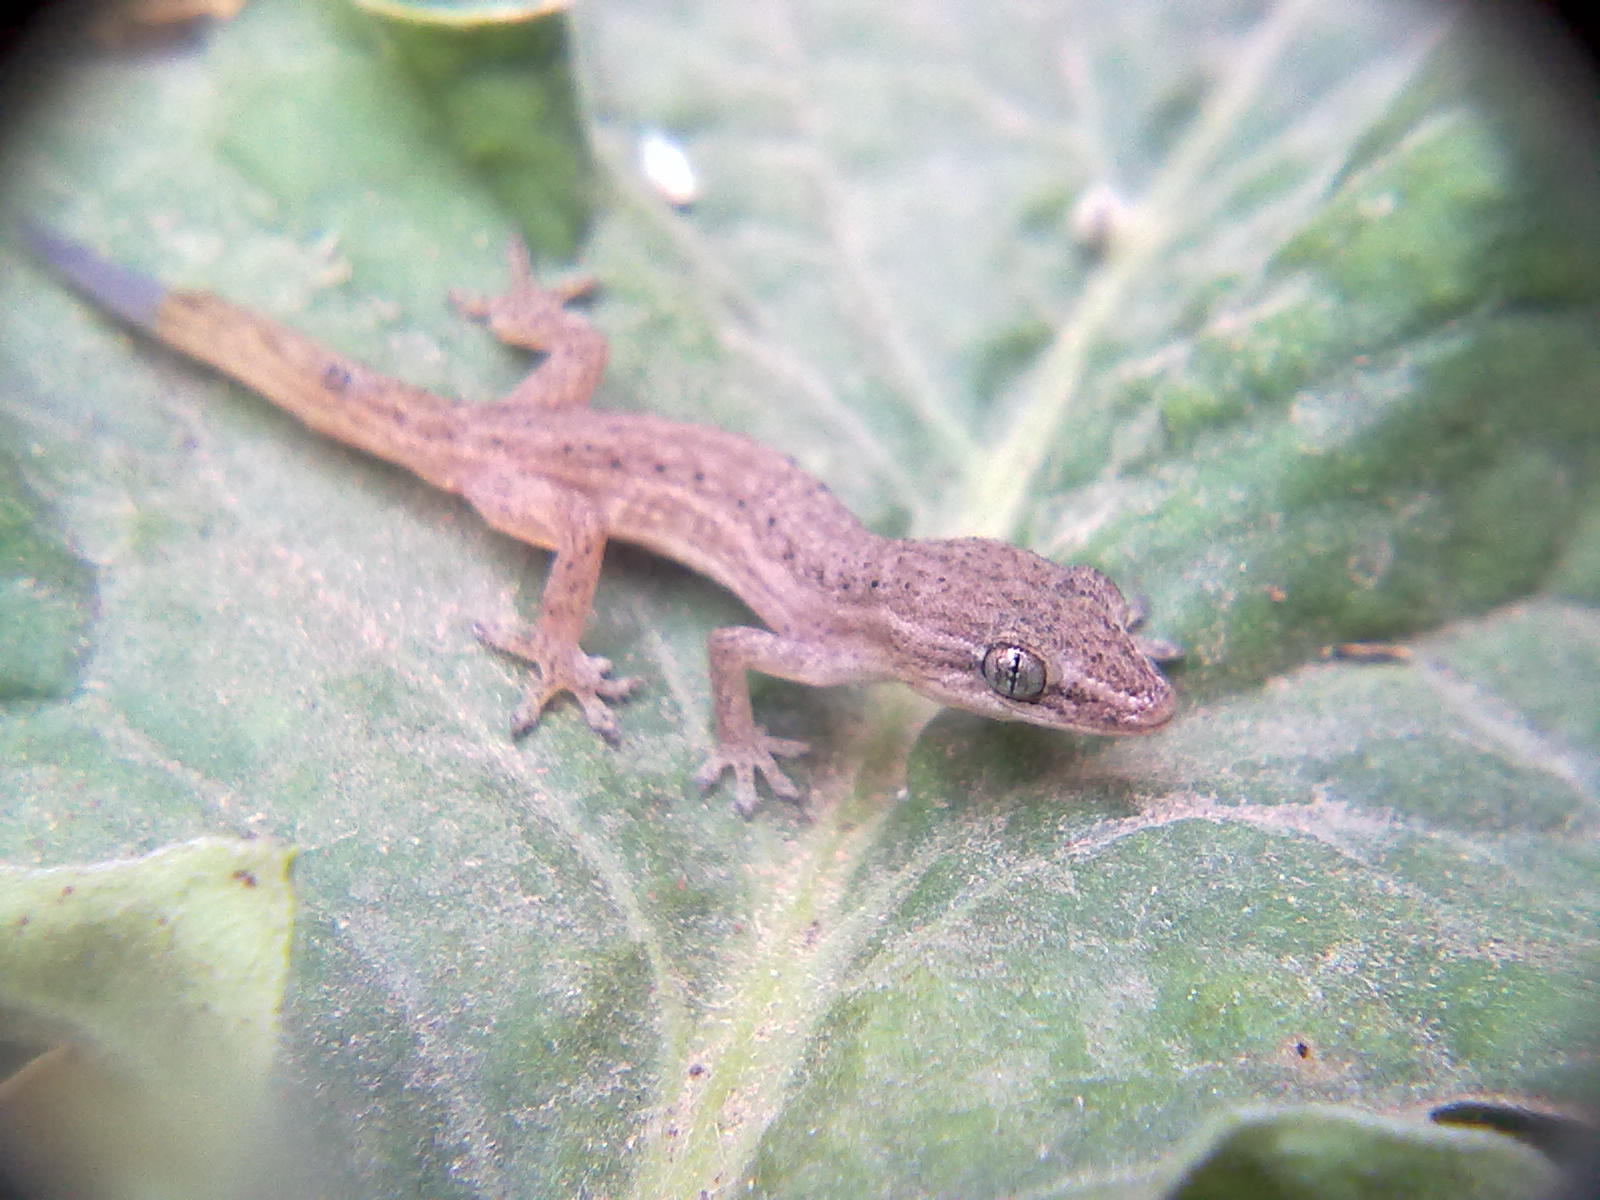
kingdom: Animalia
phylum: Chordata
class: Squamata
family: Gekkonidae
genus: Hemidactylus
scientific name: Hemidactylus gracilis
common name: Graceful leaf-toed gecko
